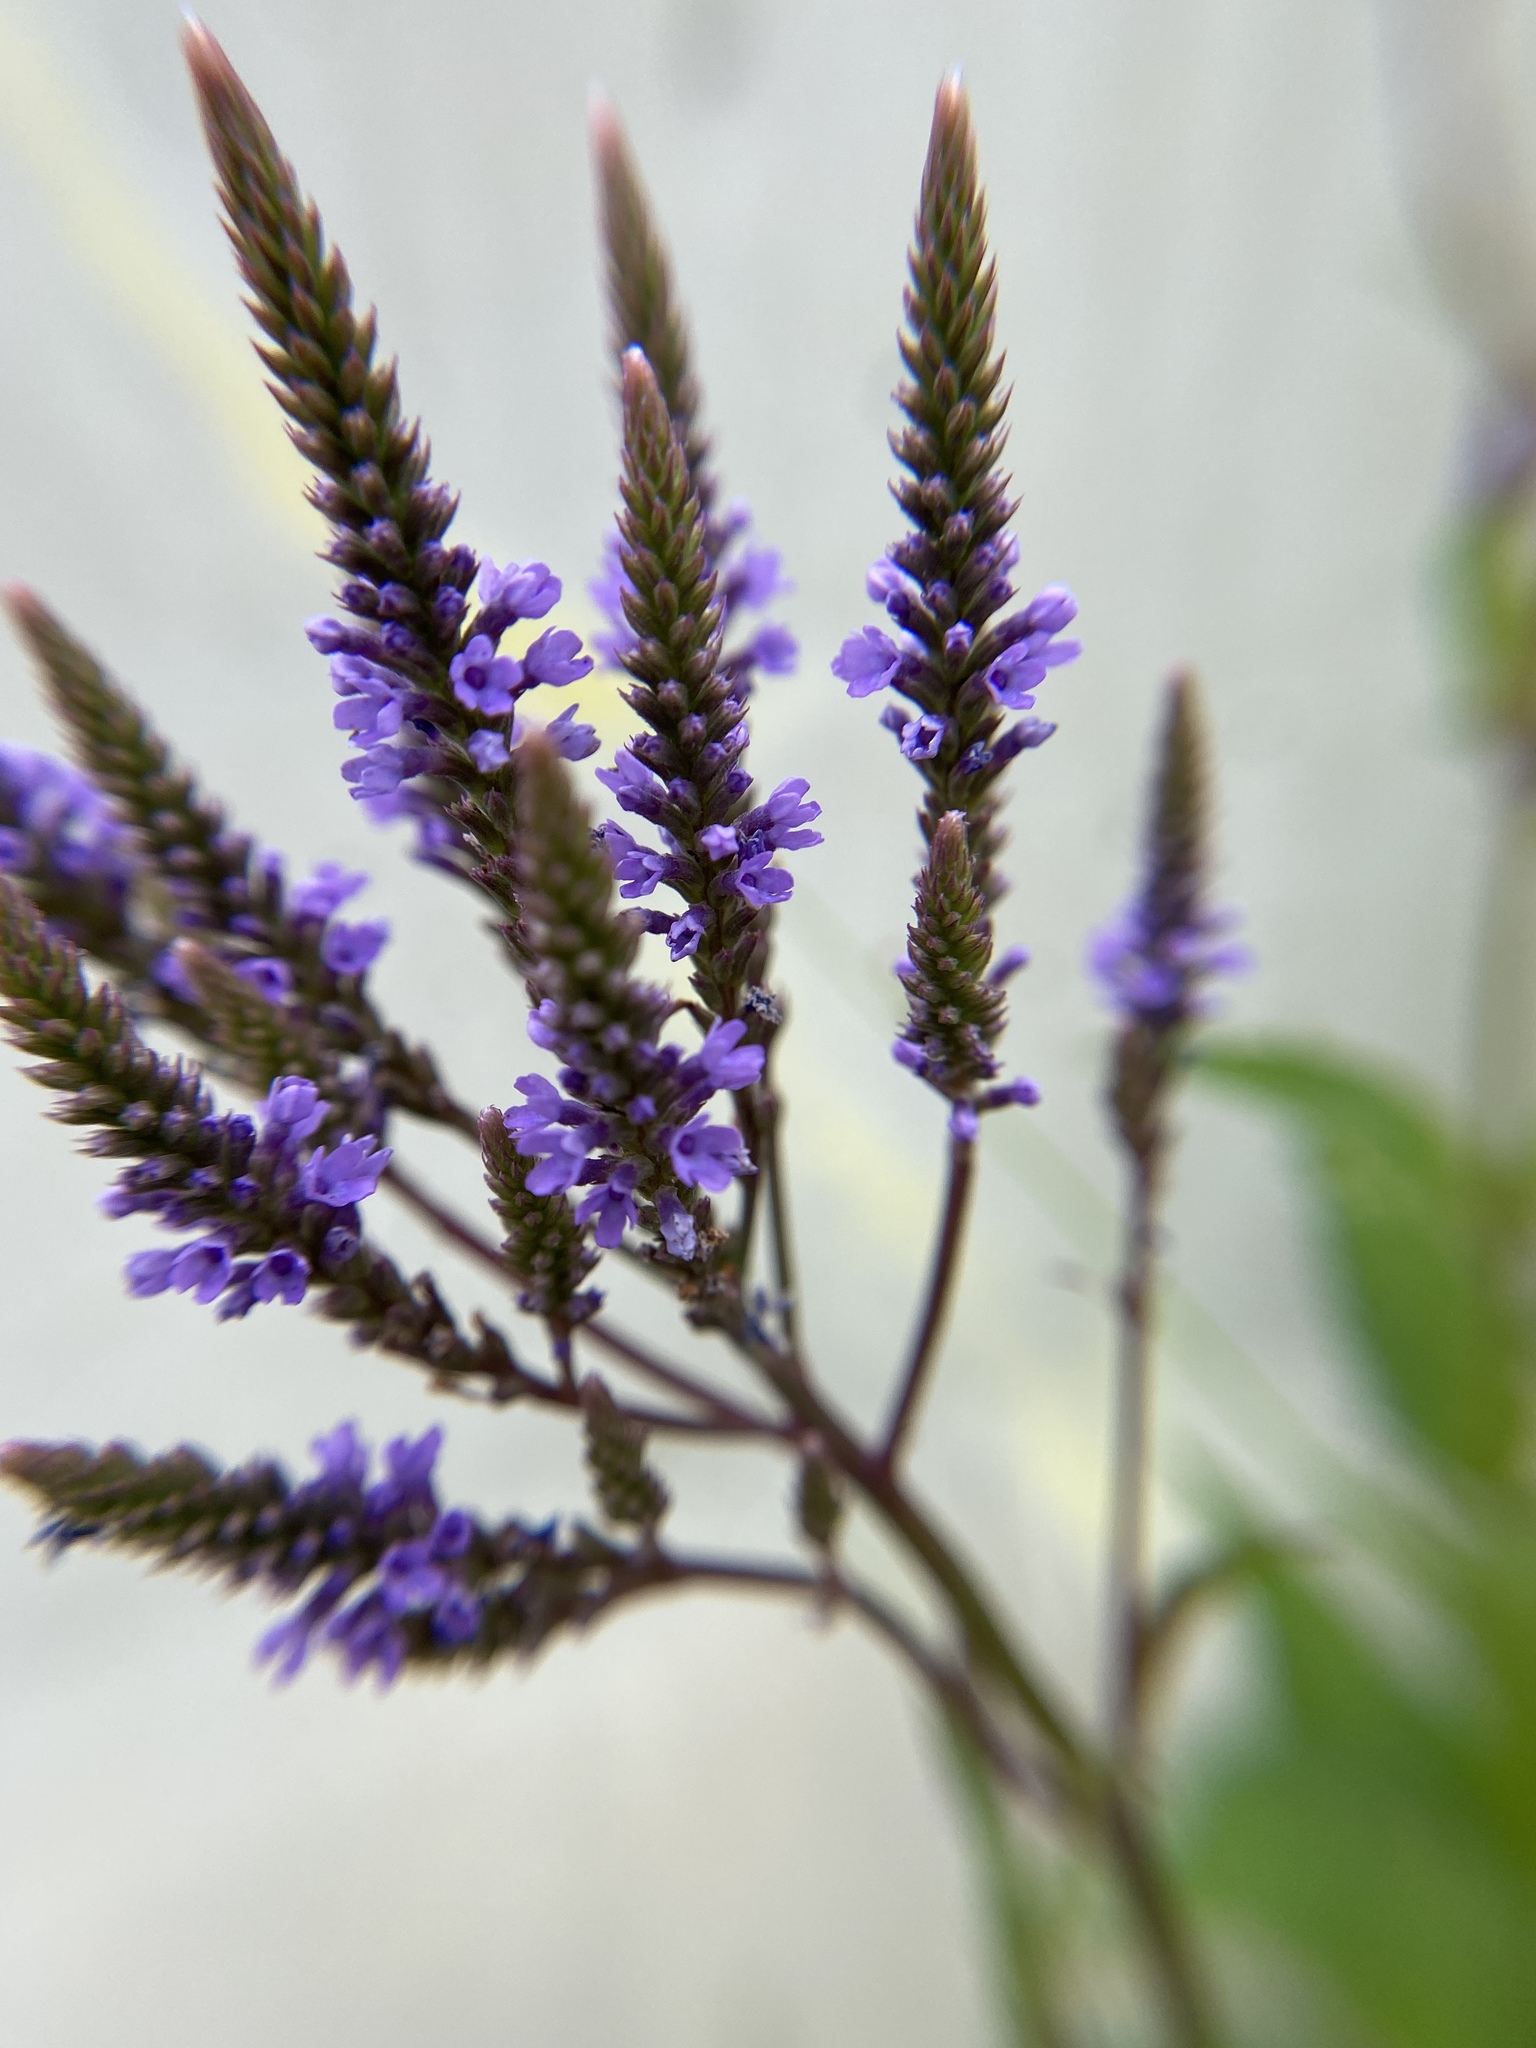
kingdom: Plantae
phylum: Tracheophyta
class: Magnoliopsida
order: Lamiales
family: Verbenaceae
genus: Verbena
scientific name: Verbena hastata
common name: American blue vervain
